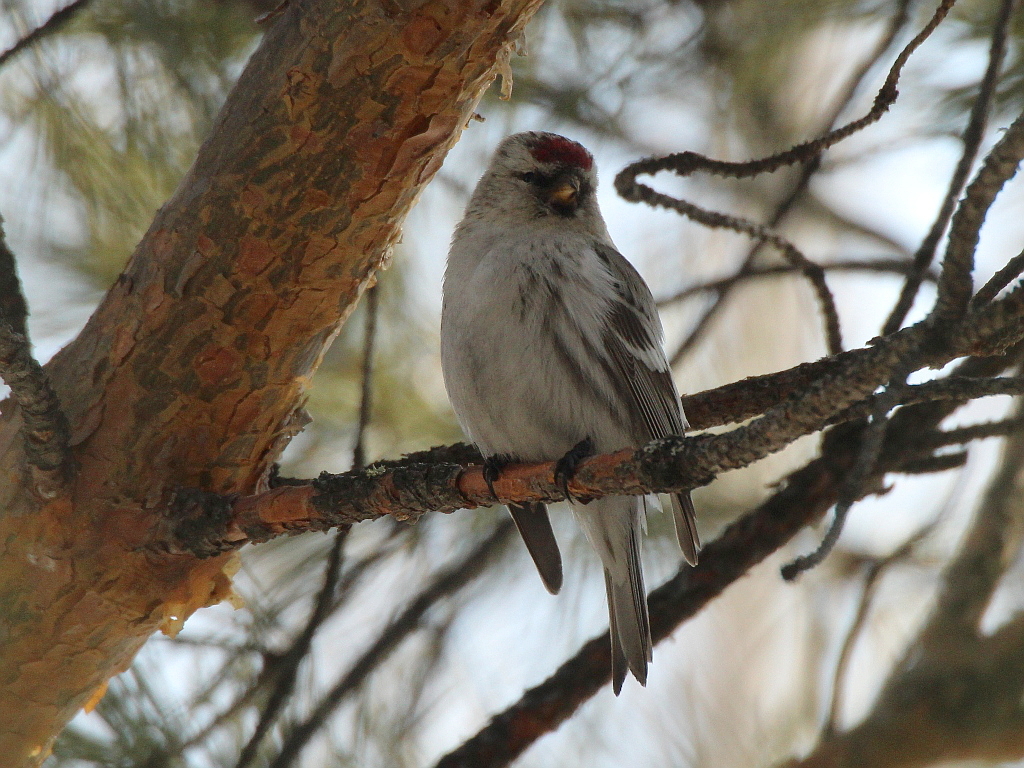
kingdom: Animalia
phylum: Chordata
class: Aves
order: Passeriformes
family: Fringillidae
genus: Acanthis
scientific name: Acanthis hornemanni
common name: Arctic redpoll
